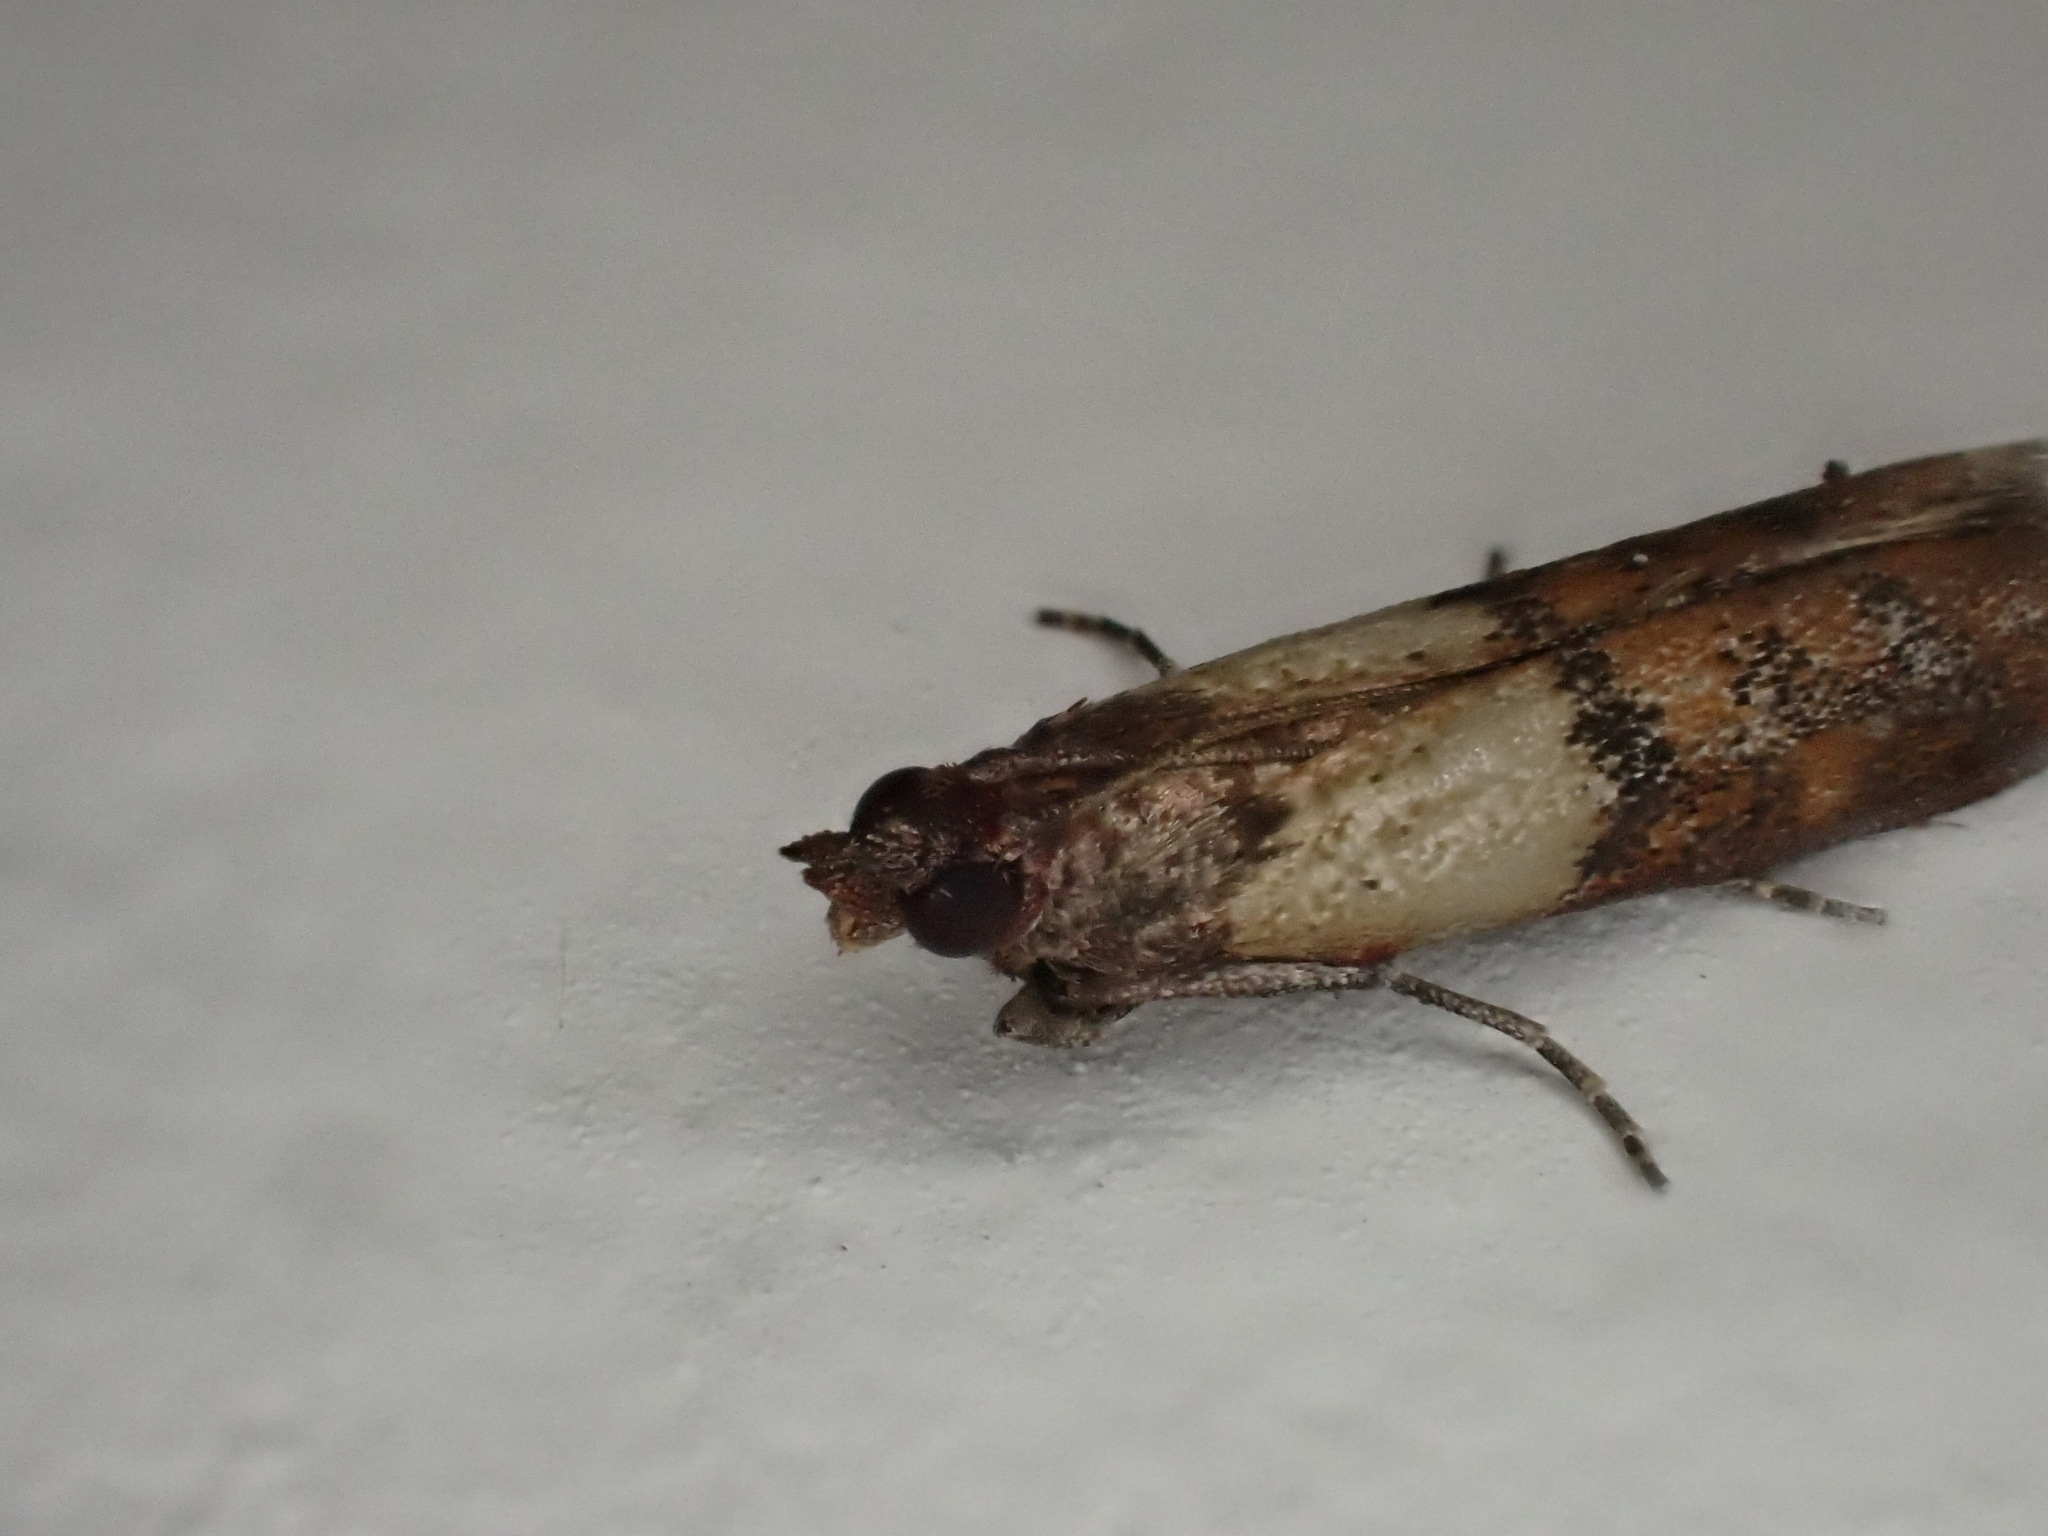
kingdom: Animalia
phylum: Arthropoda
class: Insecta
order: Lepidoptera
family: Pyralidae
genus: Plodia
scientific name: Plodia interpunctella
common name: Indian meal moth
